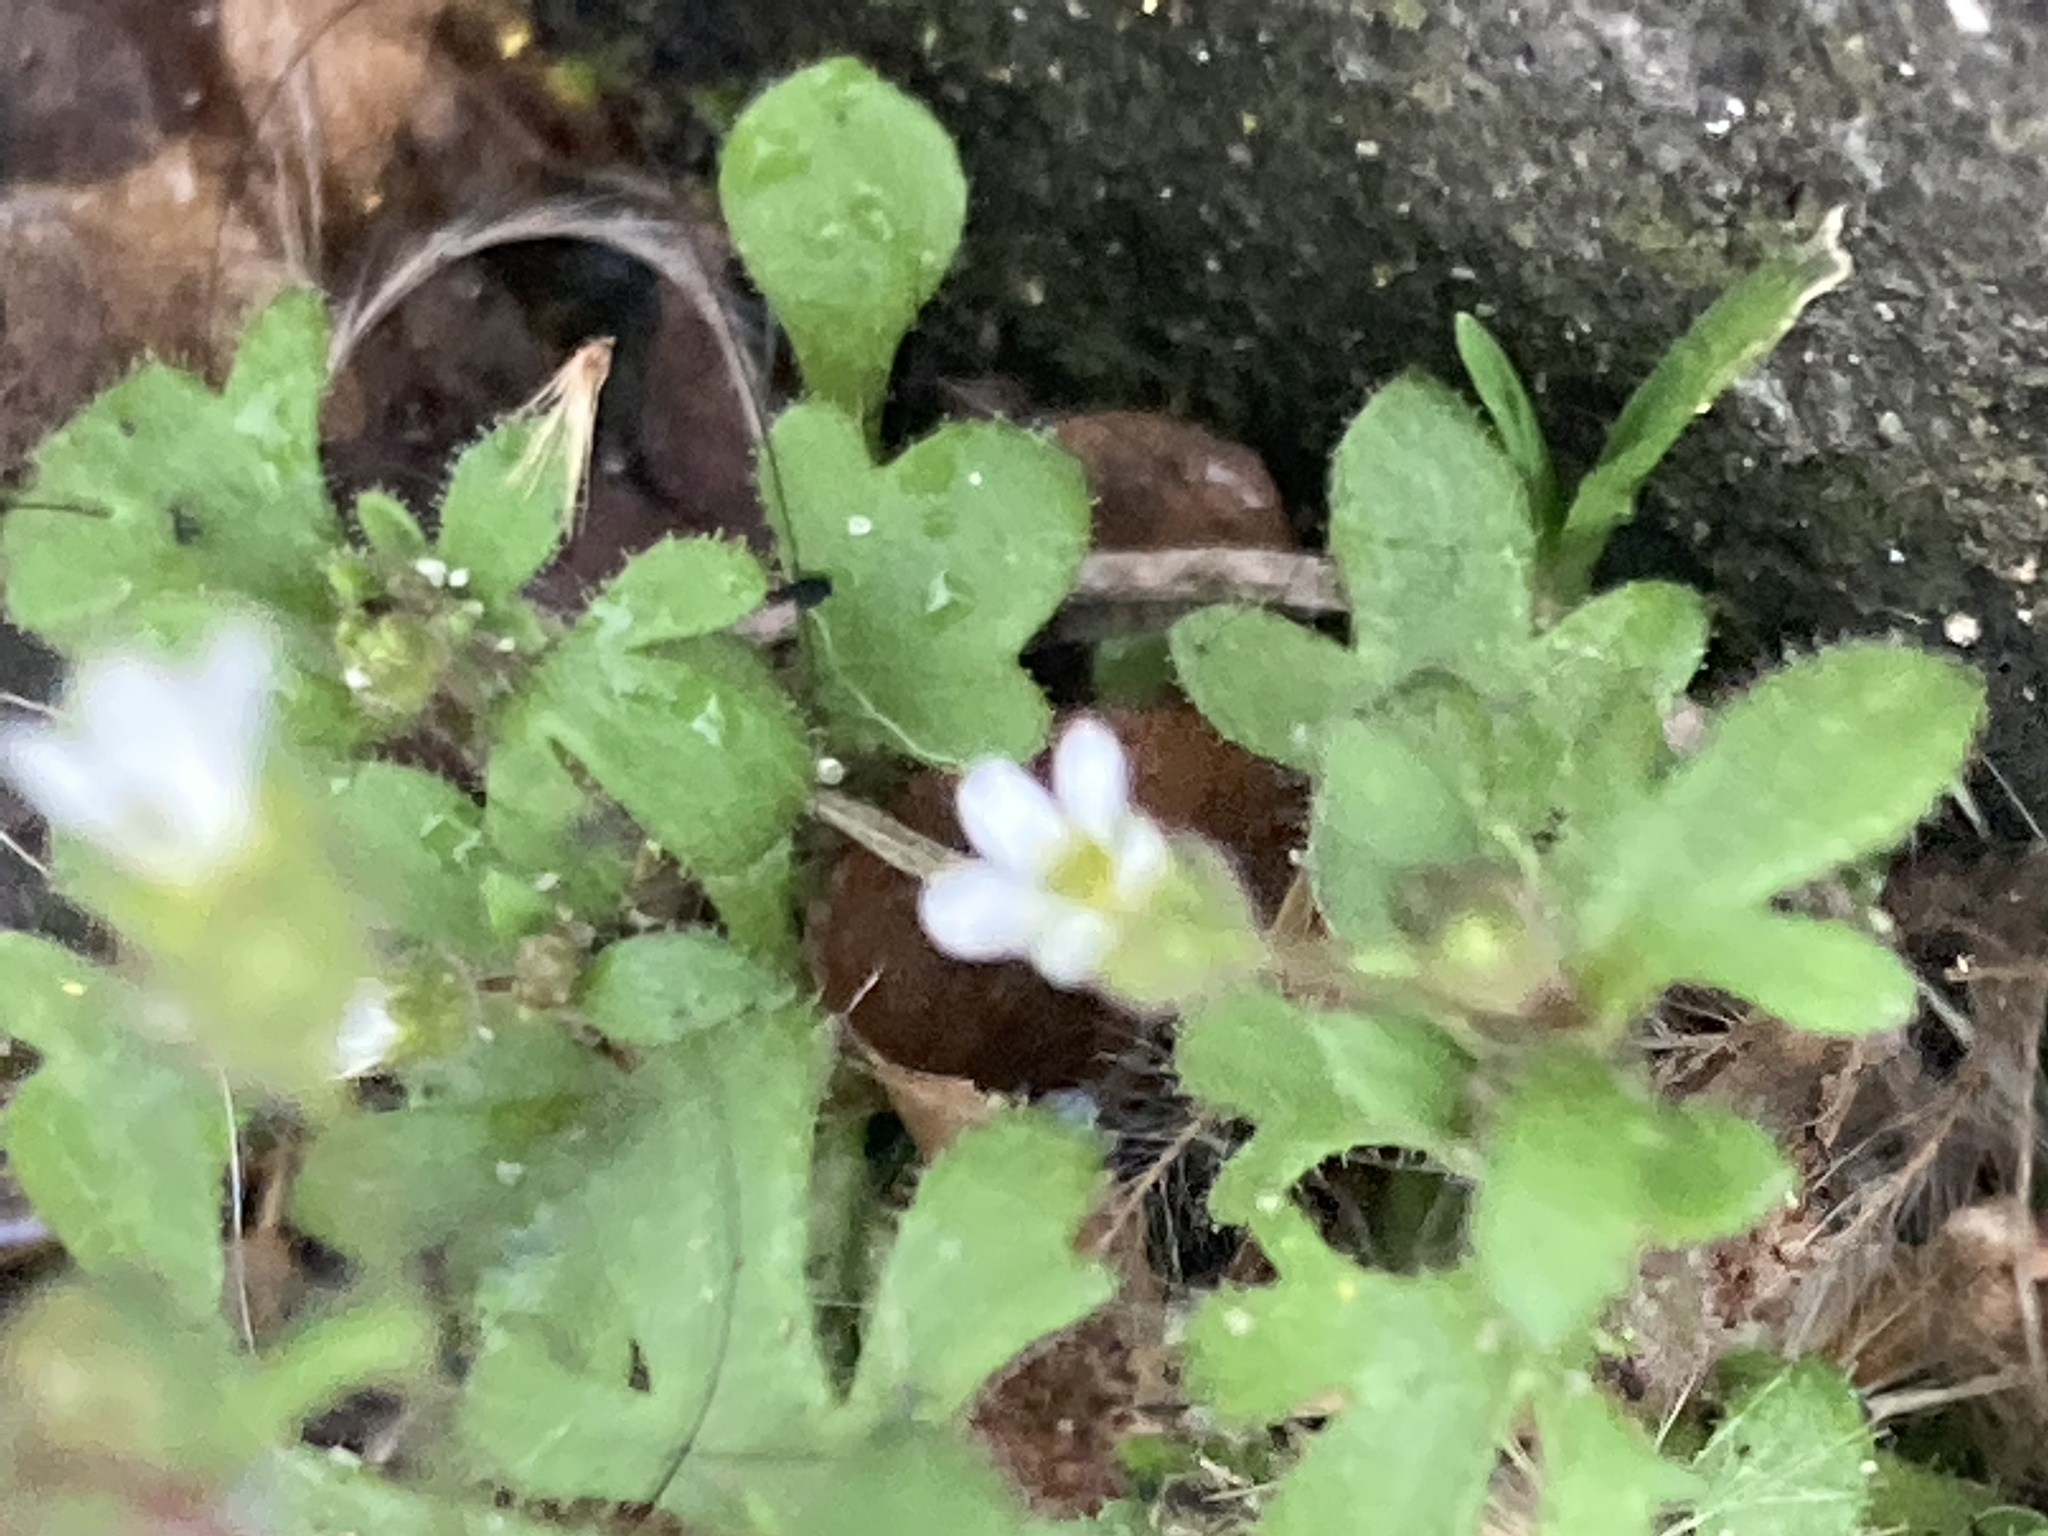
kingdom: Plantae
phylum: Tracheophyta
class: Magnoliopsida
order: Saxifragales
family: Saxifragaceae
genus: Saxifraga
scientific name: Saxifraga tridactylites
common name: Rue-leaved saxifrage
